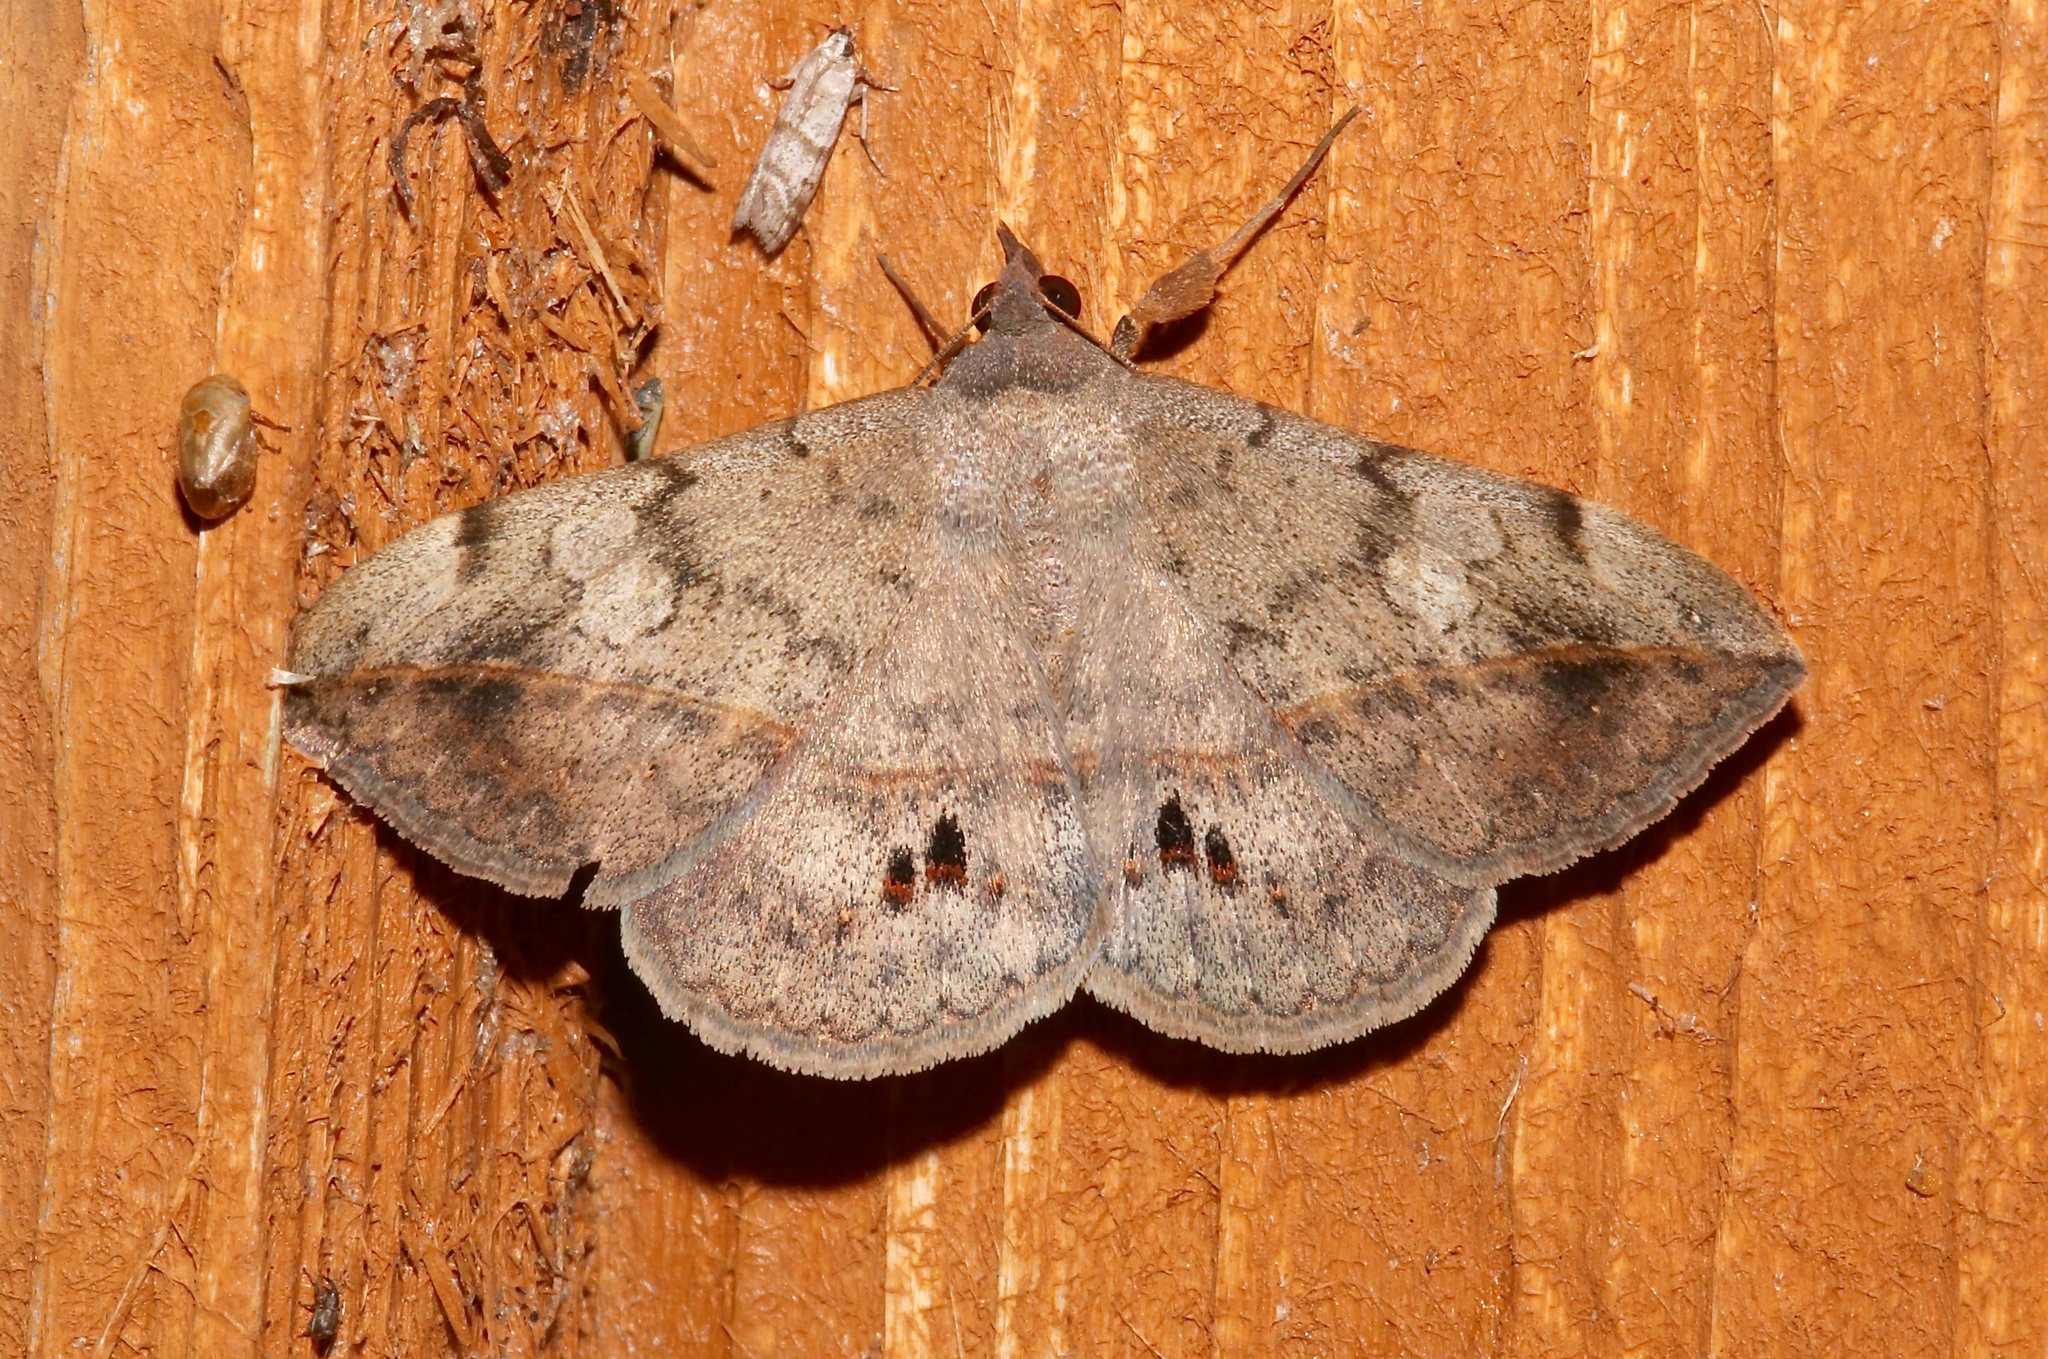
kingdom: Animalia
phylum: Arthropoda
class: Insecta
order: Lepidoptera
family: Erebidae
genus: Anticarsia
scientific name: Anticarsia gemmatalis
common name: Cutworm moth
